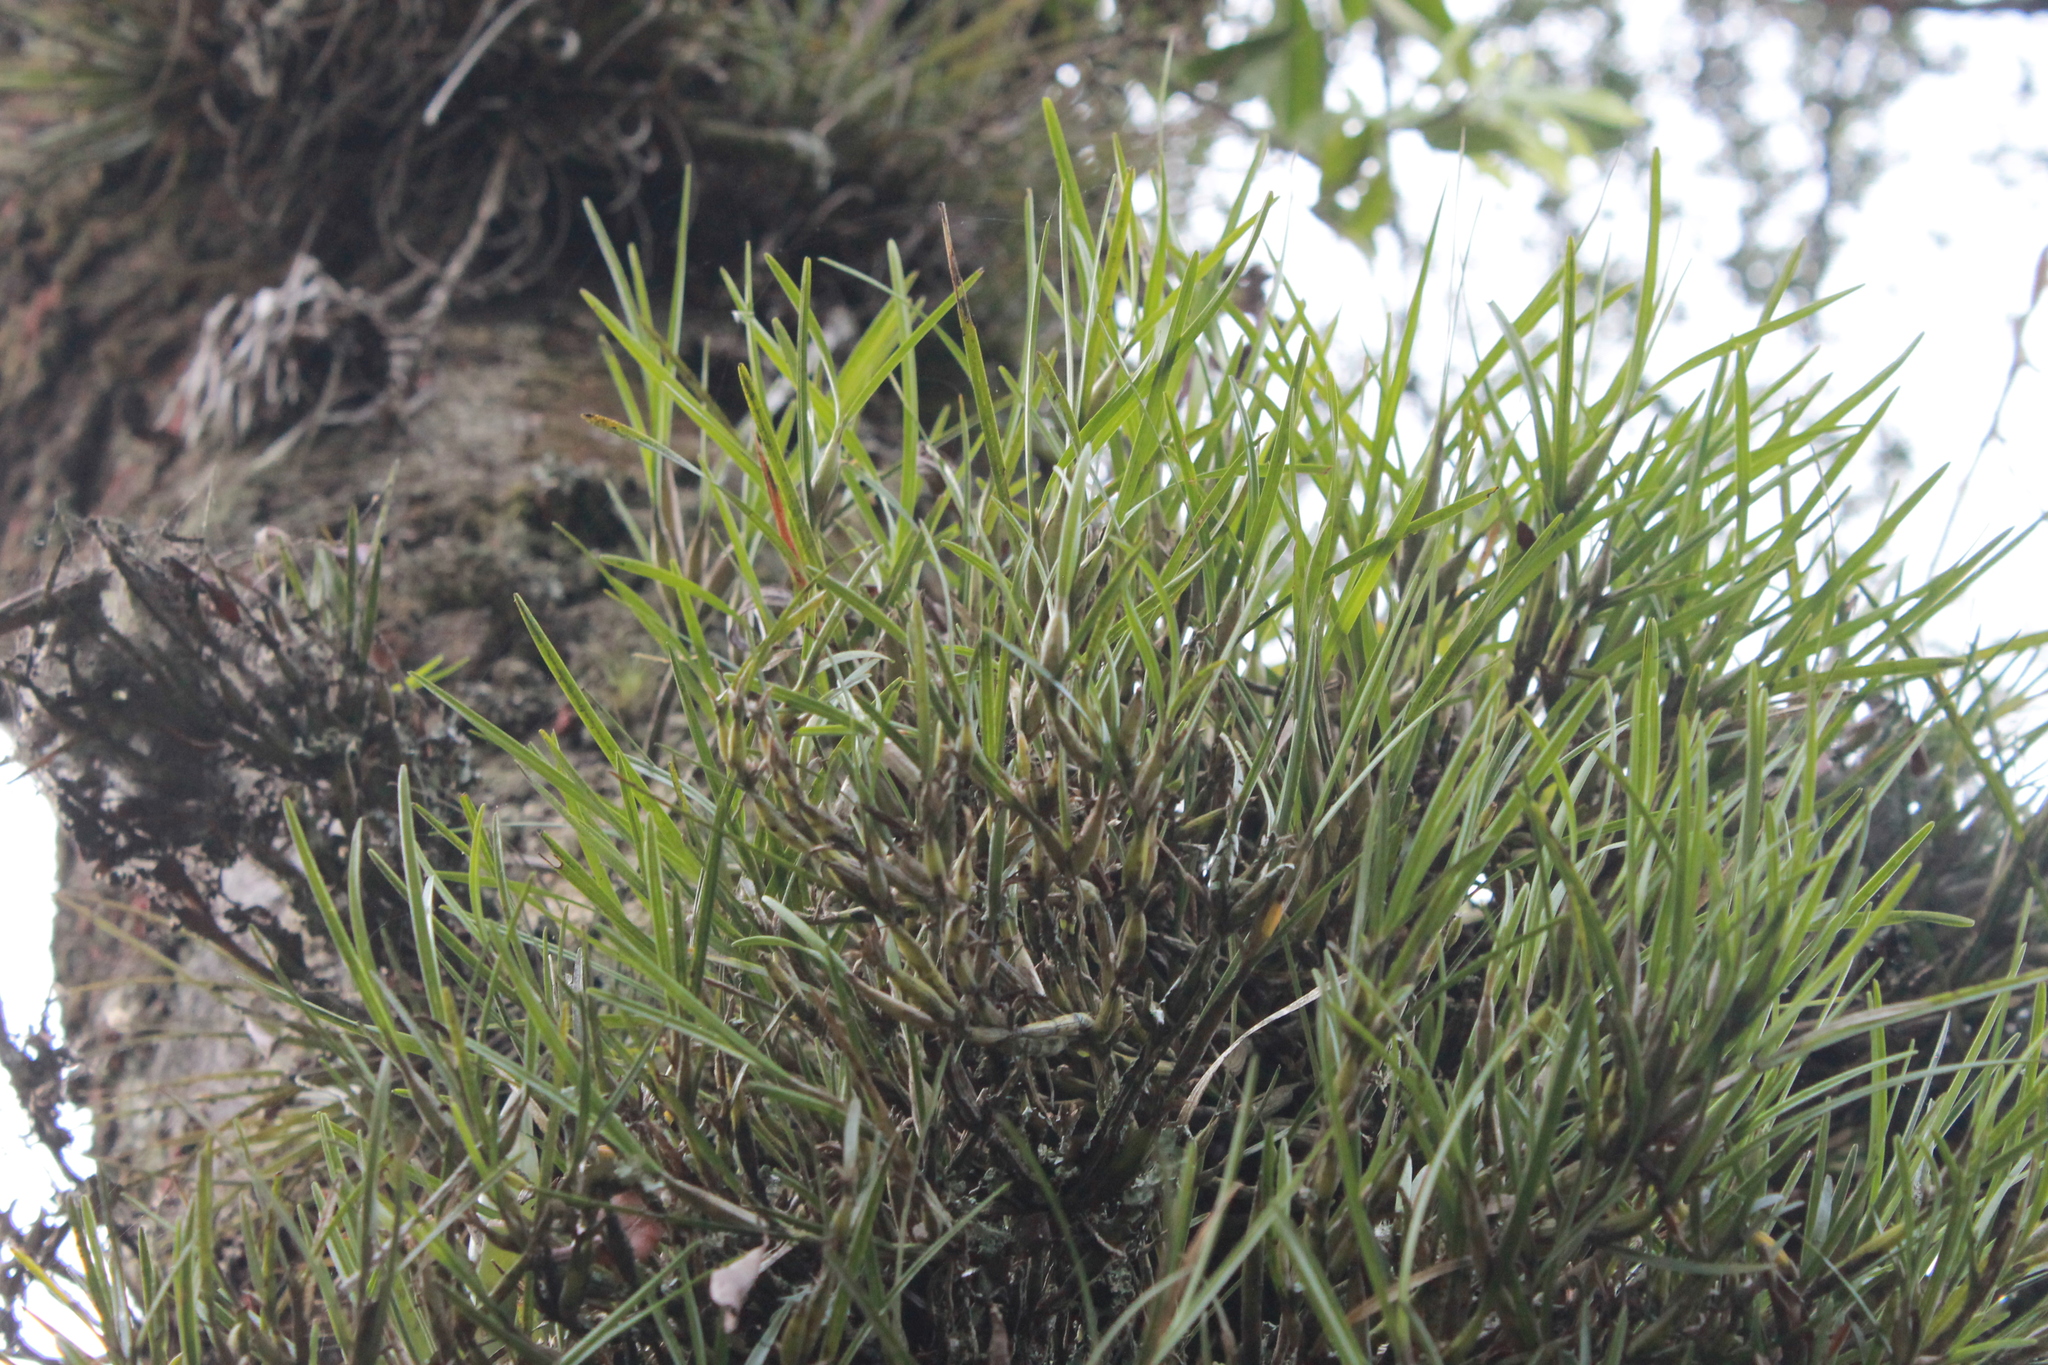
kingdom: Plantae
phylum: Tracheophyta
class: Liliopsida
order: Asparagales
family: Orchidaceae
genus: Scaphyglottis
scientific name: Scaphyglottis fasciculata
